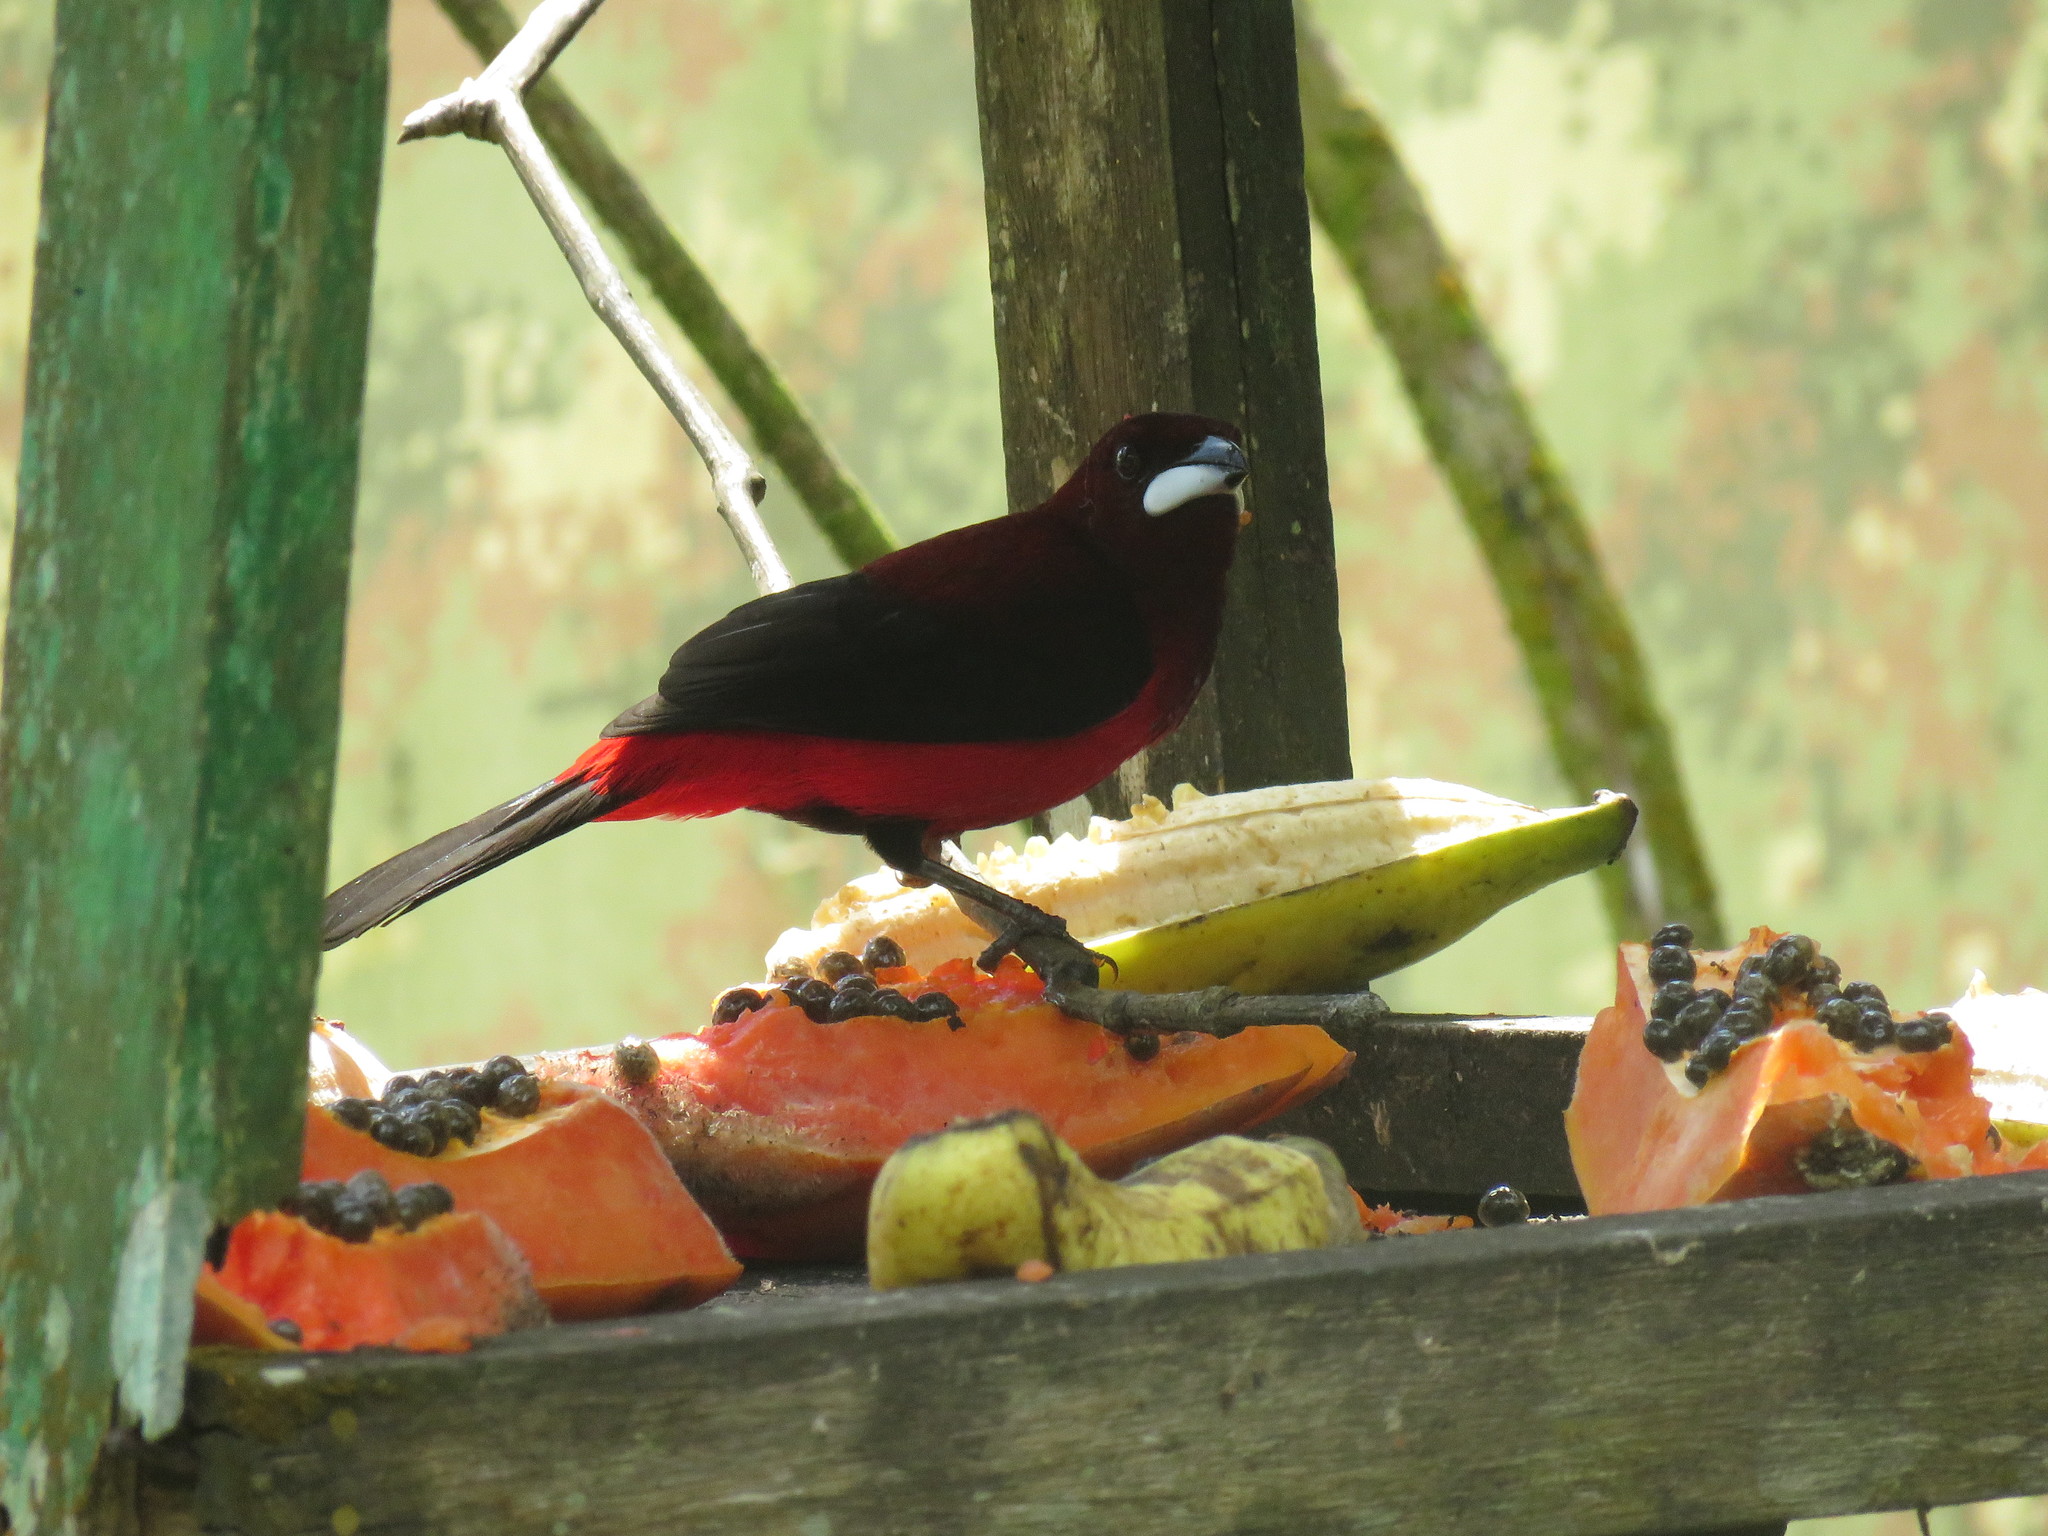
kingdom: Animalia
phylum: Chordata
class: Aves
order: Passeriformes
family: Thraupidae
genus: Ramphocelus
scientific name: Ramphocelus dimidiatus
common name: Crimson-backed tanager
